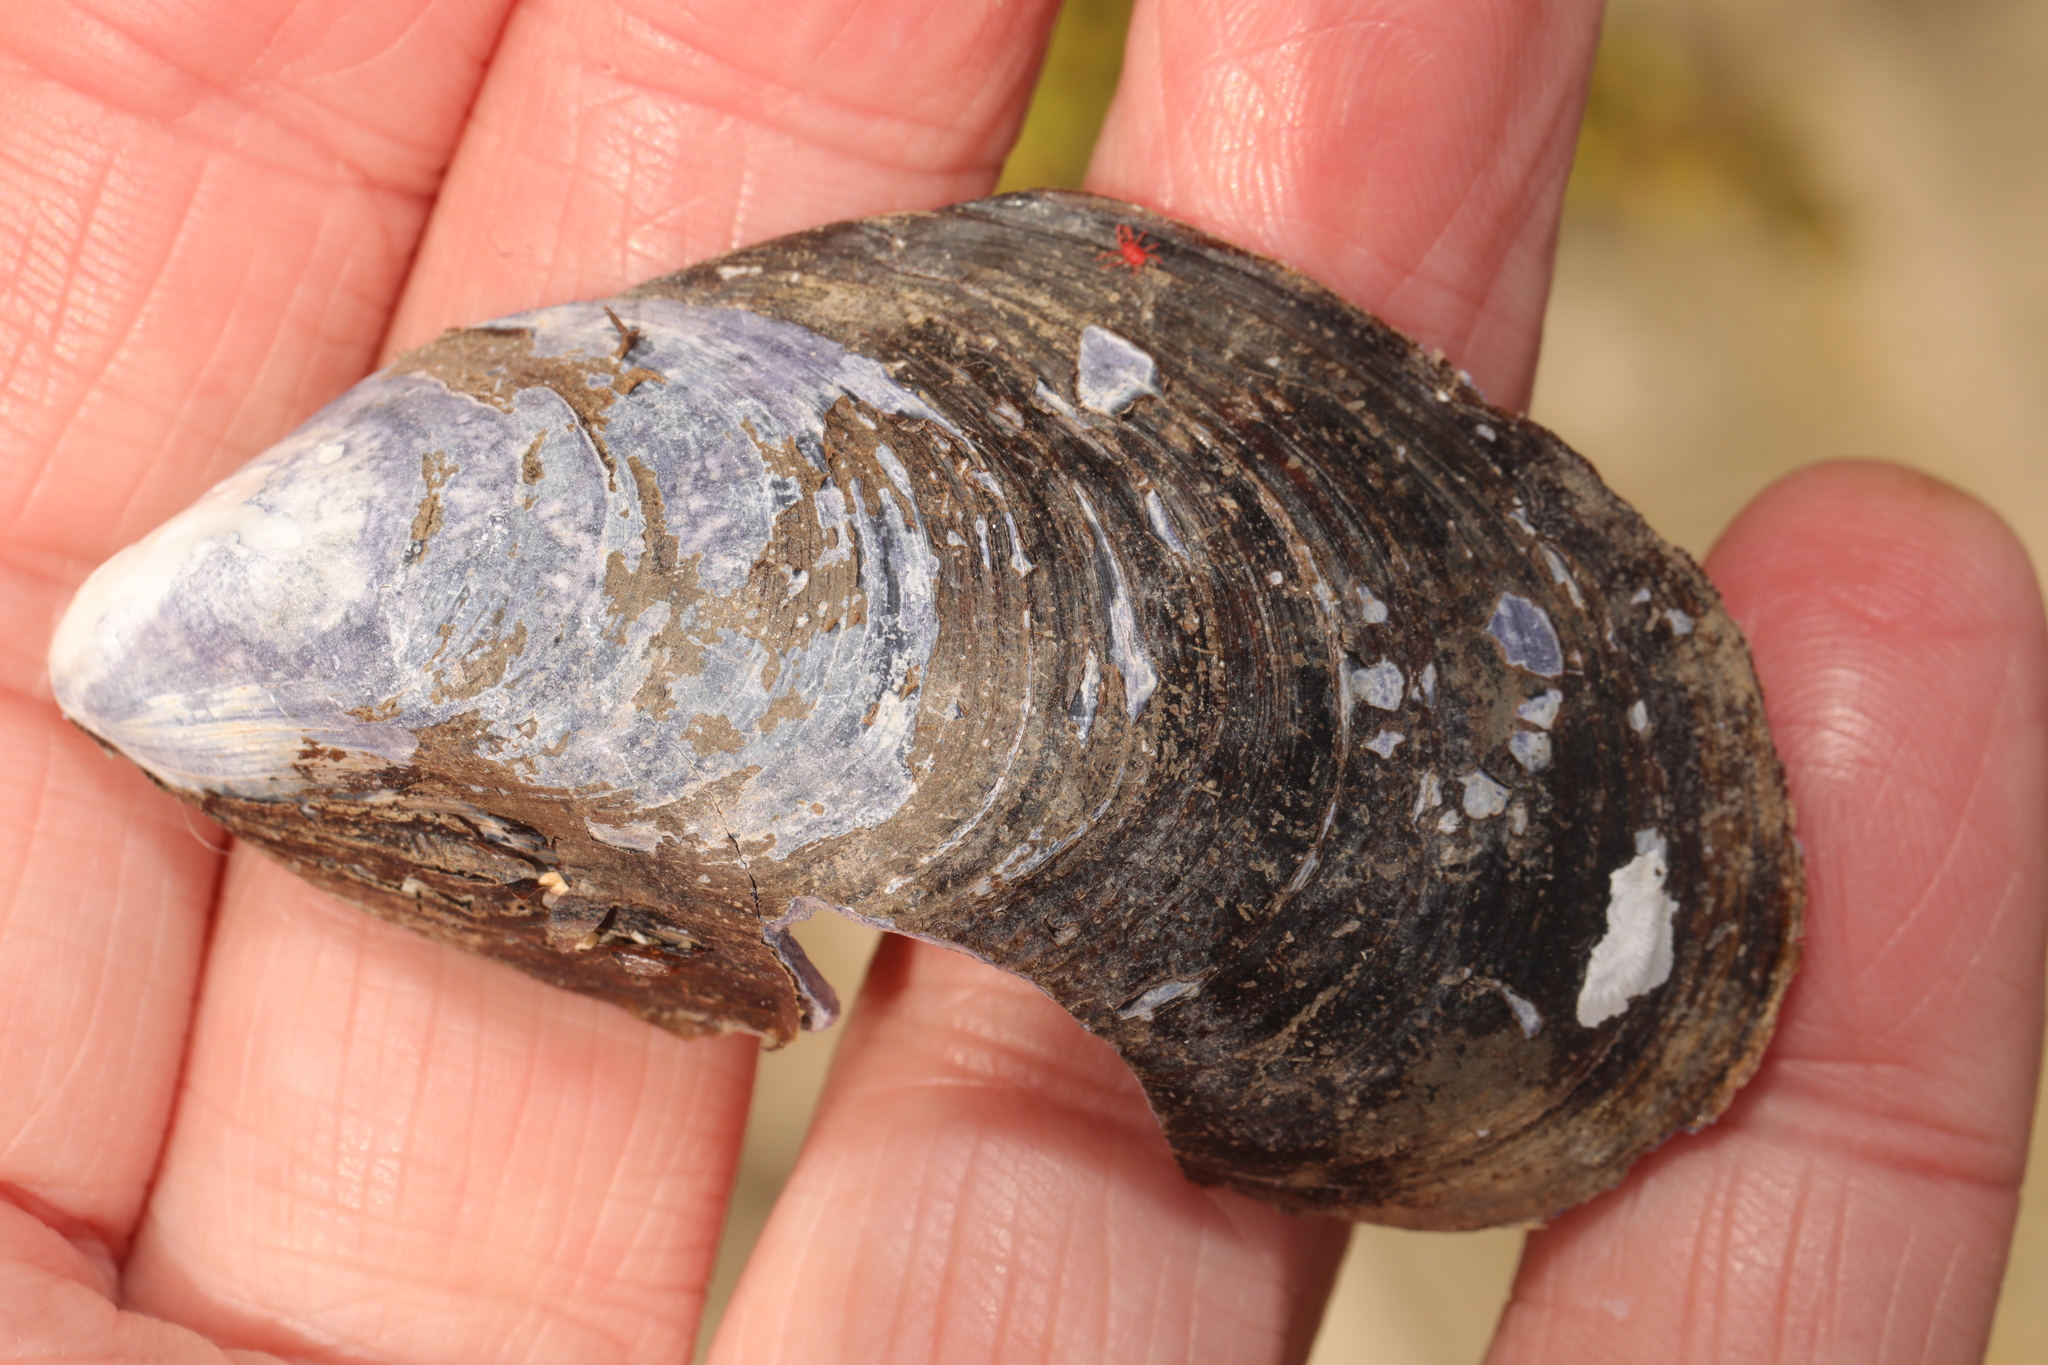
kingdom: Animalia
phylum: Mollusca
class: Bivalvia
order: Mytilida
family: Mytilidae
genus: Mytilus
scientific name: Mytilus edulis
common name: Blue mussel
